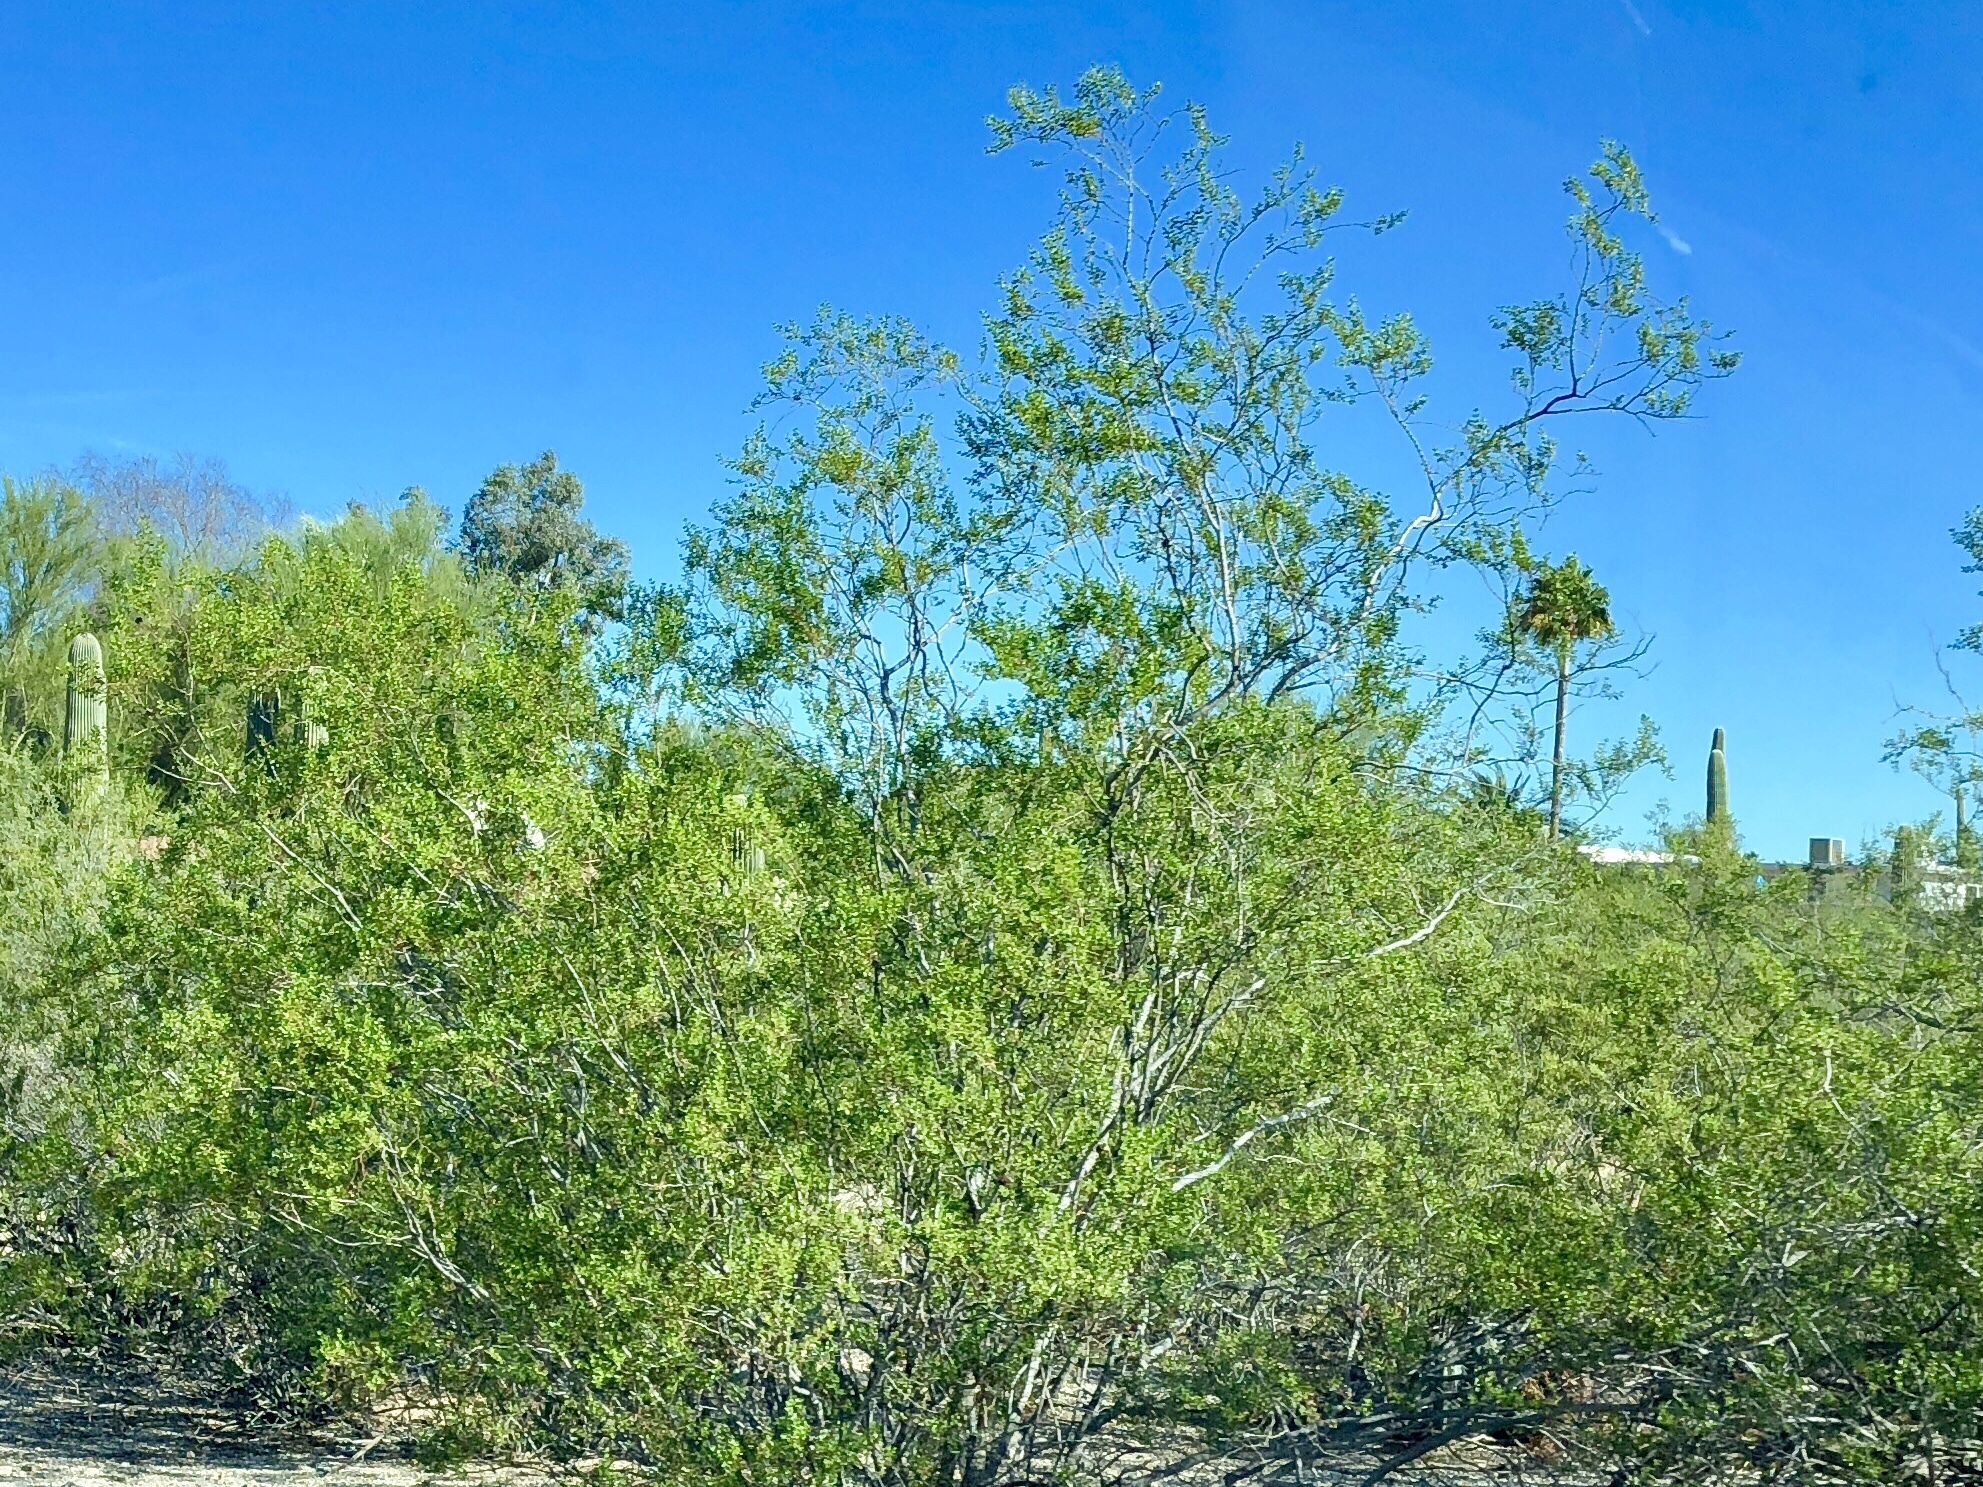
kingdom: Plantae
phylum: Tracheophyta
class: Magnoliopsida
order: Zygophyllales
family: Zygophyllaceae
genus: Larrea
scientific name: Larrea tridentata
